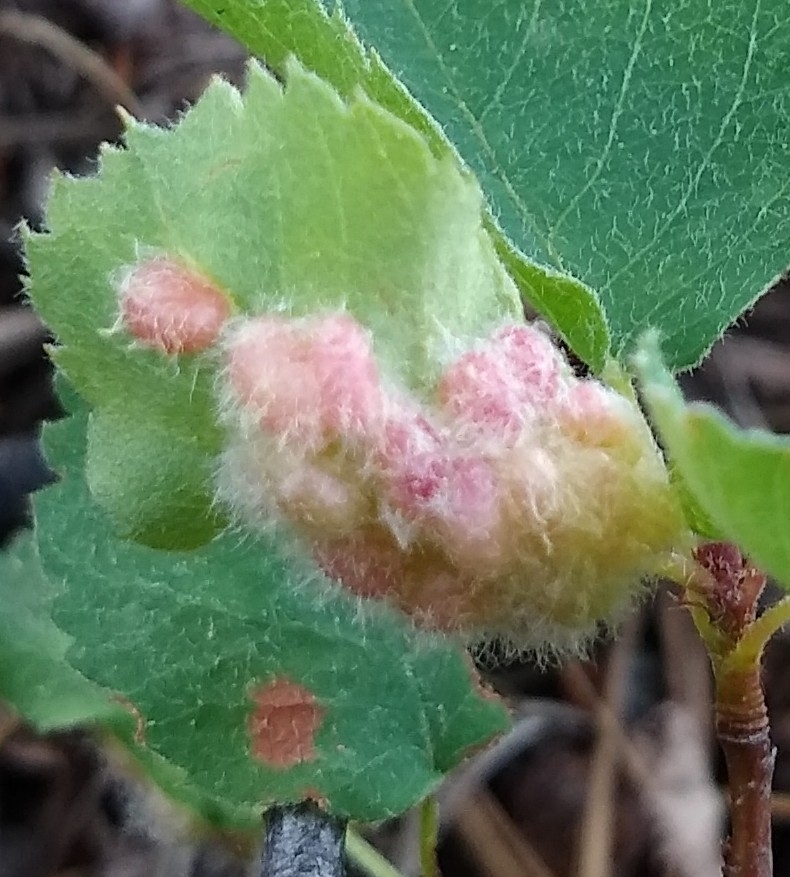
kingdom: Animalia
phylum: Arthropoda
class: Insecta
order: Diptera
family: Cecidomyiidae
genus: Blaesodiplosis
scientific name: Blaesodiplosis
